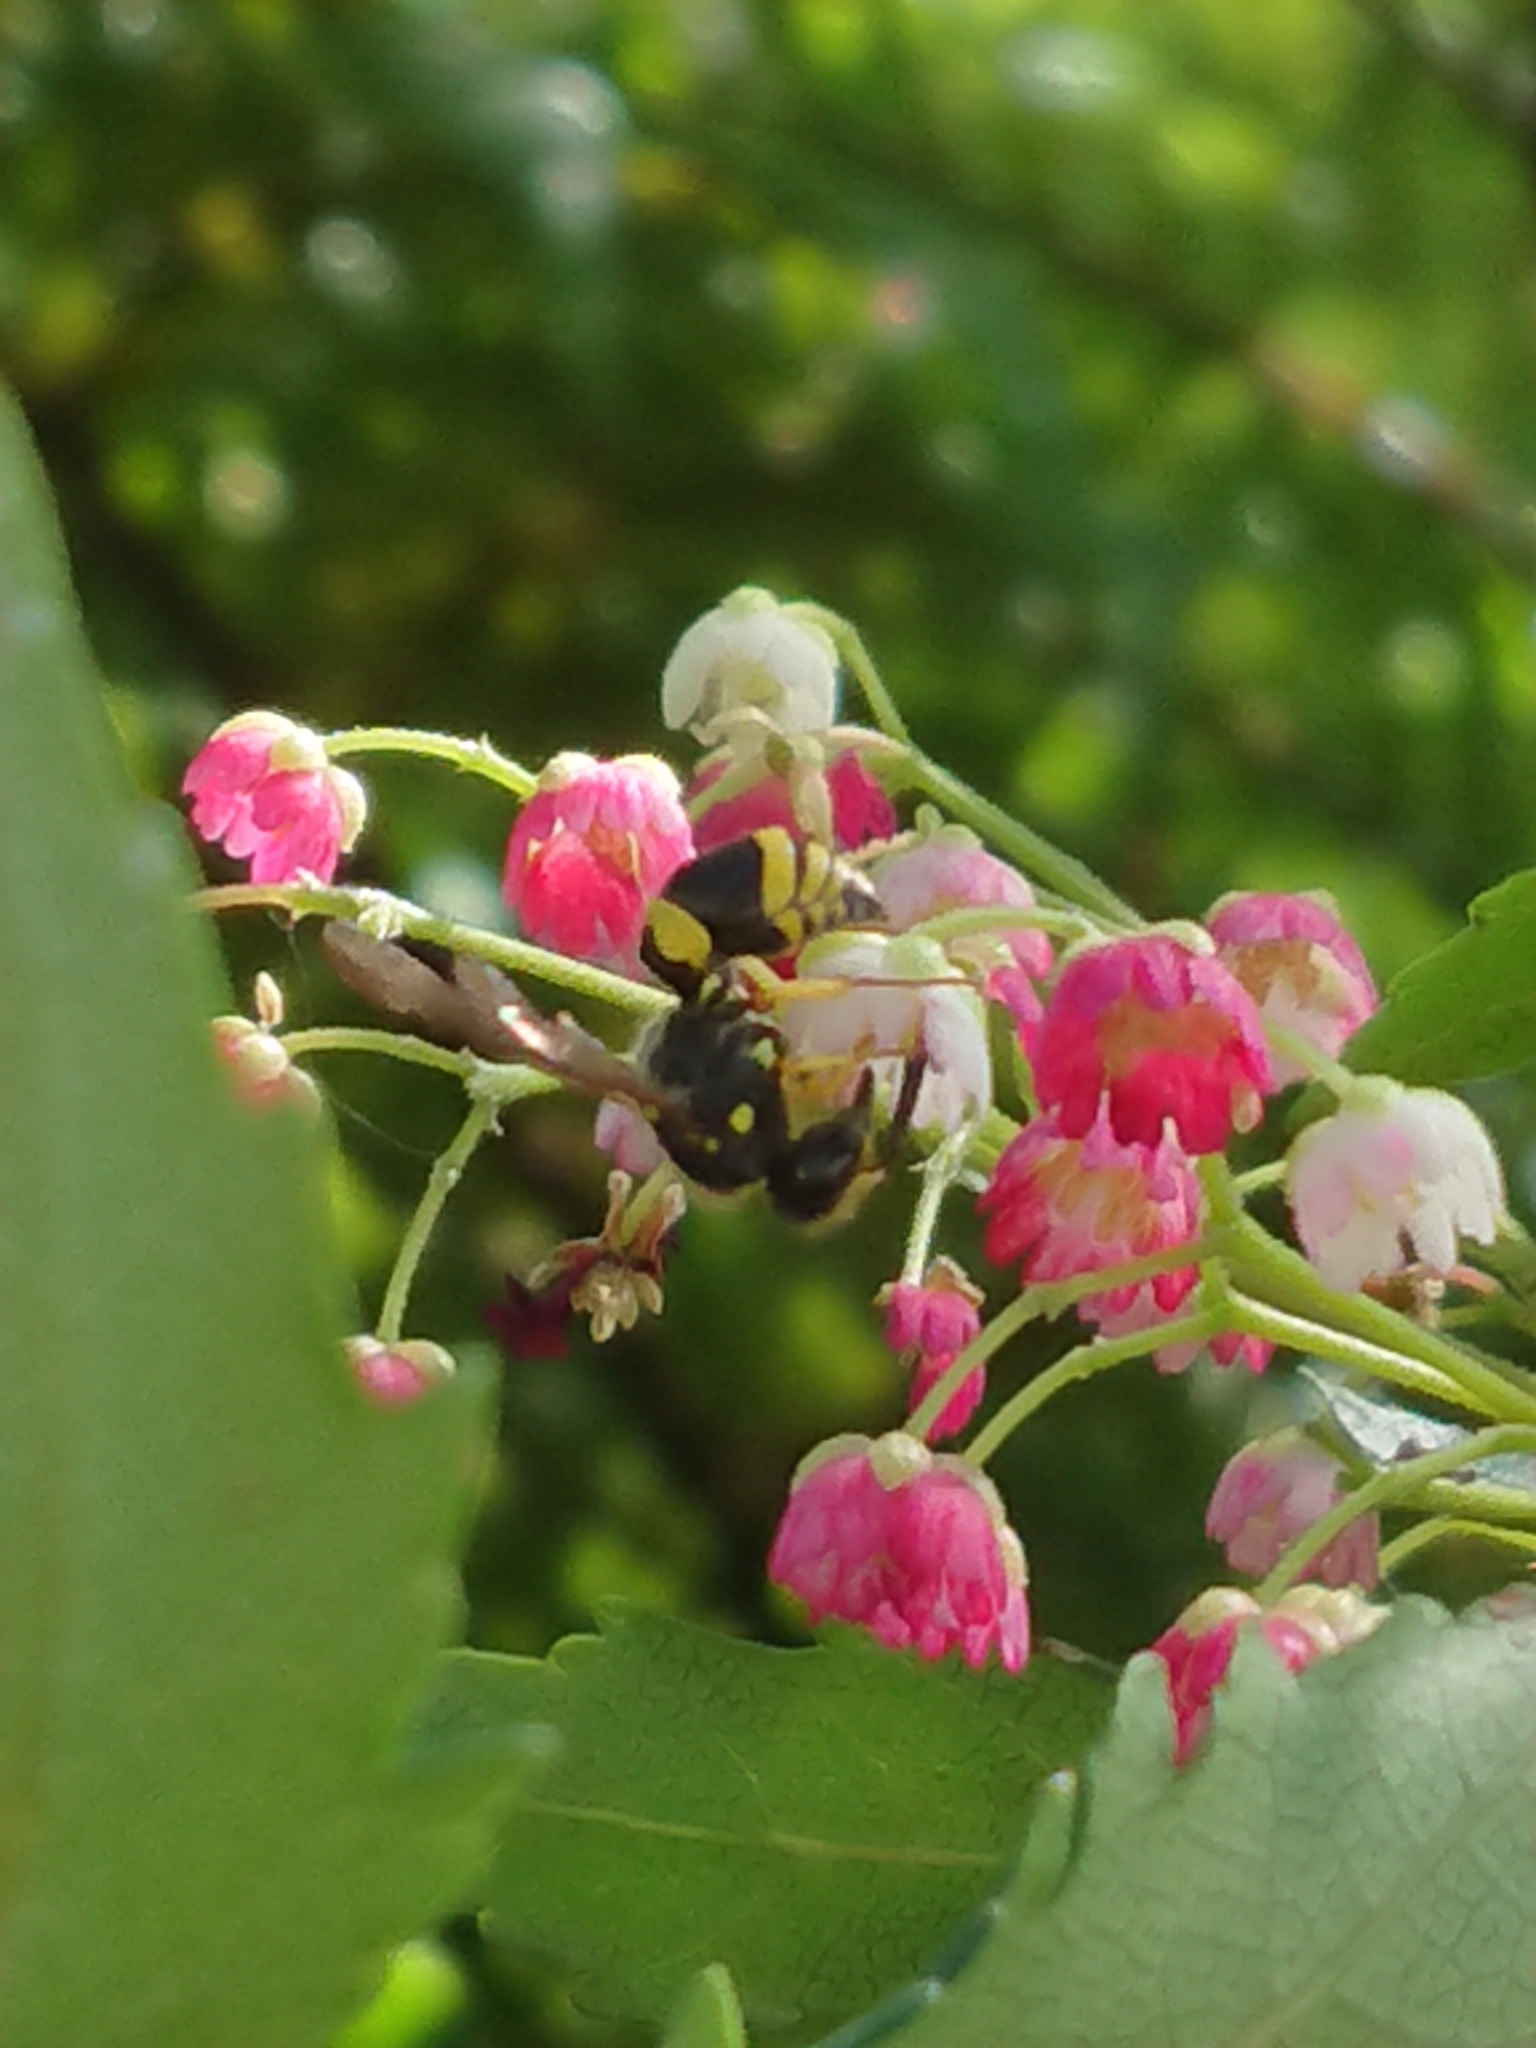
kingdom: Animalia
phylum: Arthropoda
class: Insecta
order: Hymenoptera
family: Vespidae
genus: Ancistrocerus
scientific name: Ancistrocerus gazella
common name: European tube wasp
